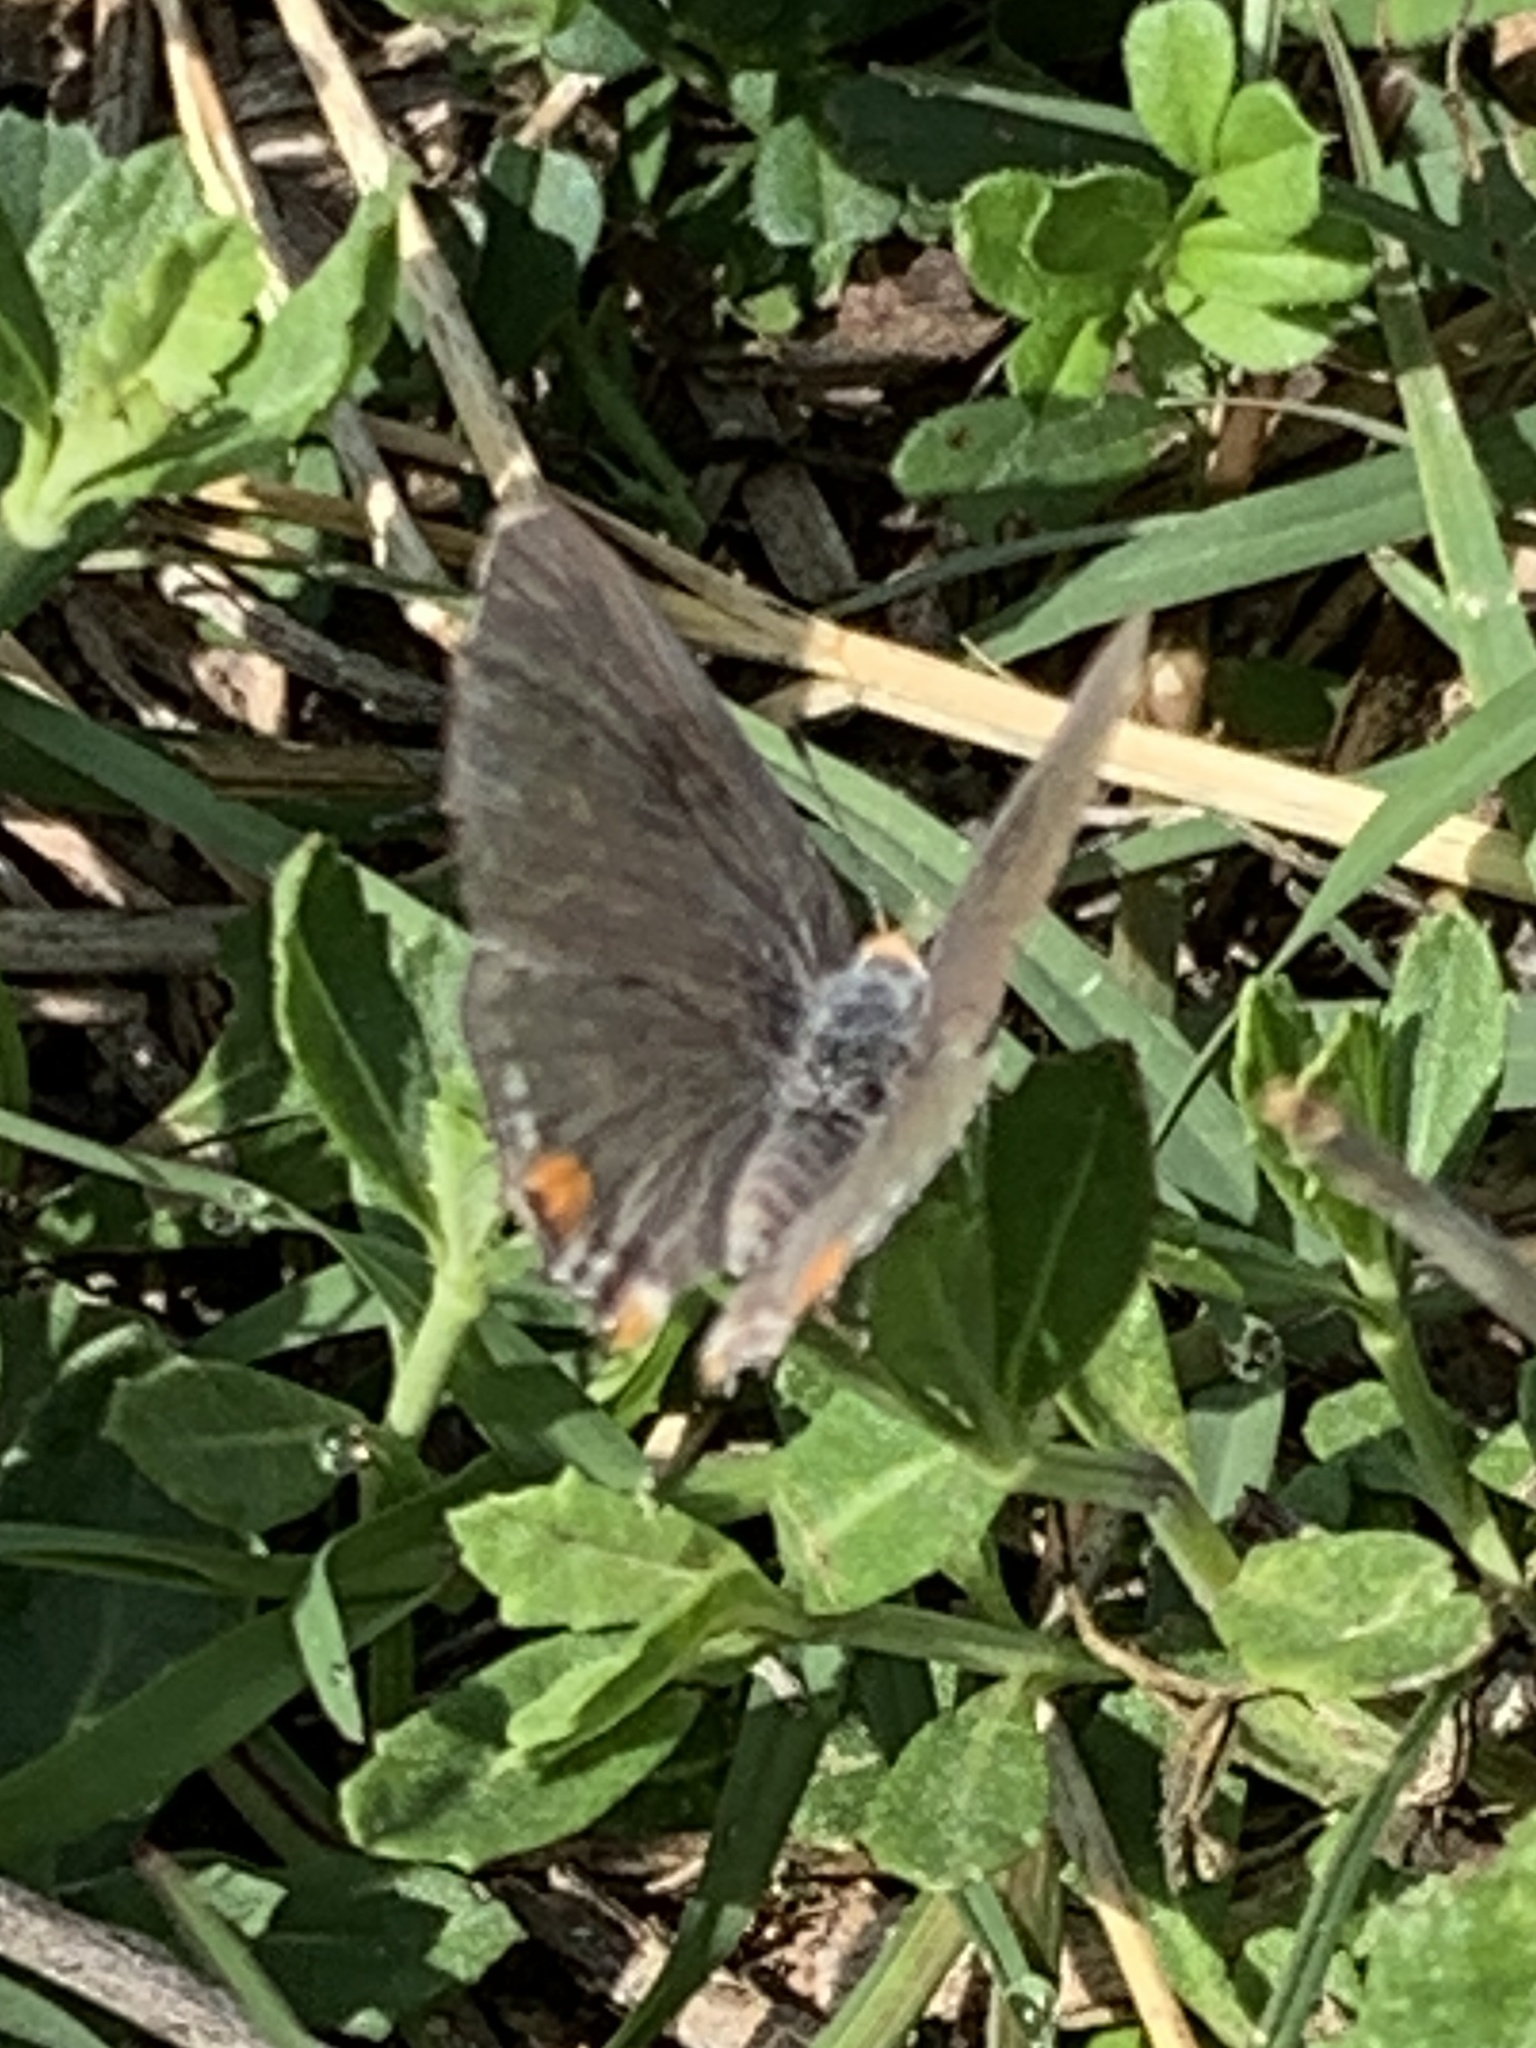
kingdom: Animalia
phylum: Arthropoda
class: Insecta
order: Lepidoptera
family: Lycaenidae
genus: Strymon
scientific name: Strymon melinus
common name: Gray hairstreak
